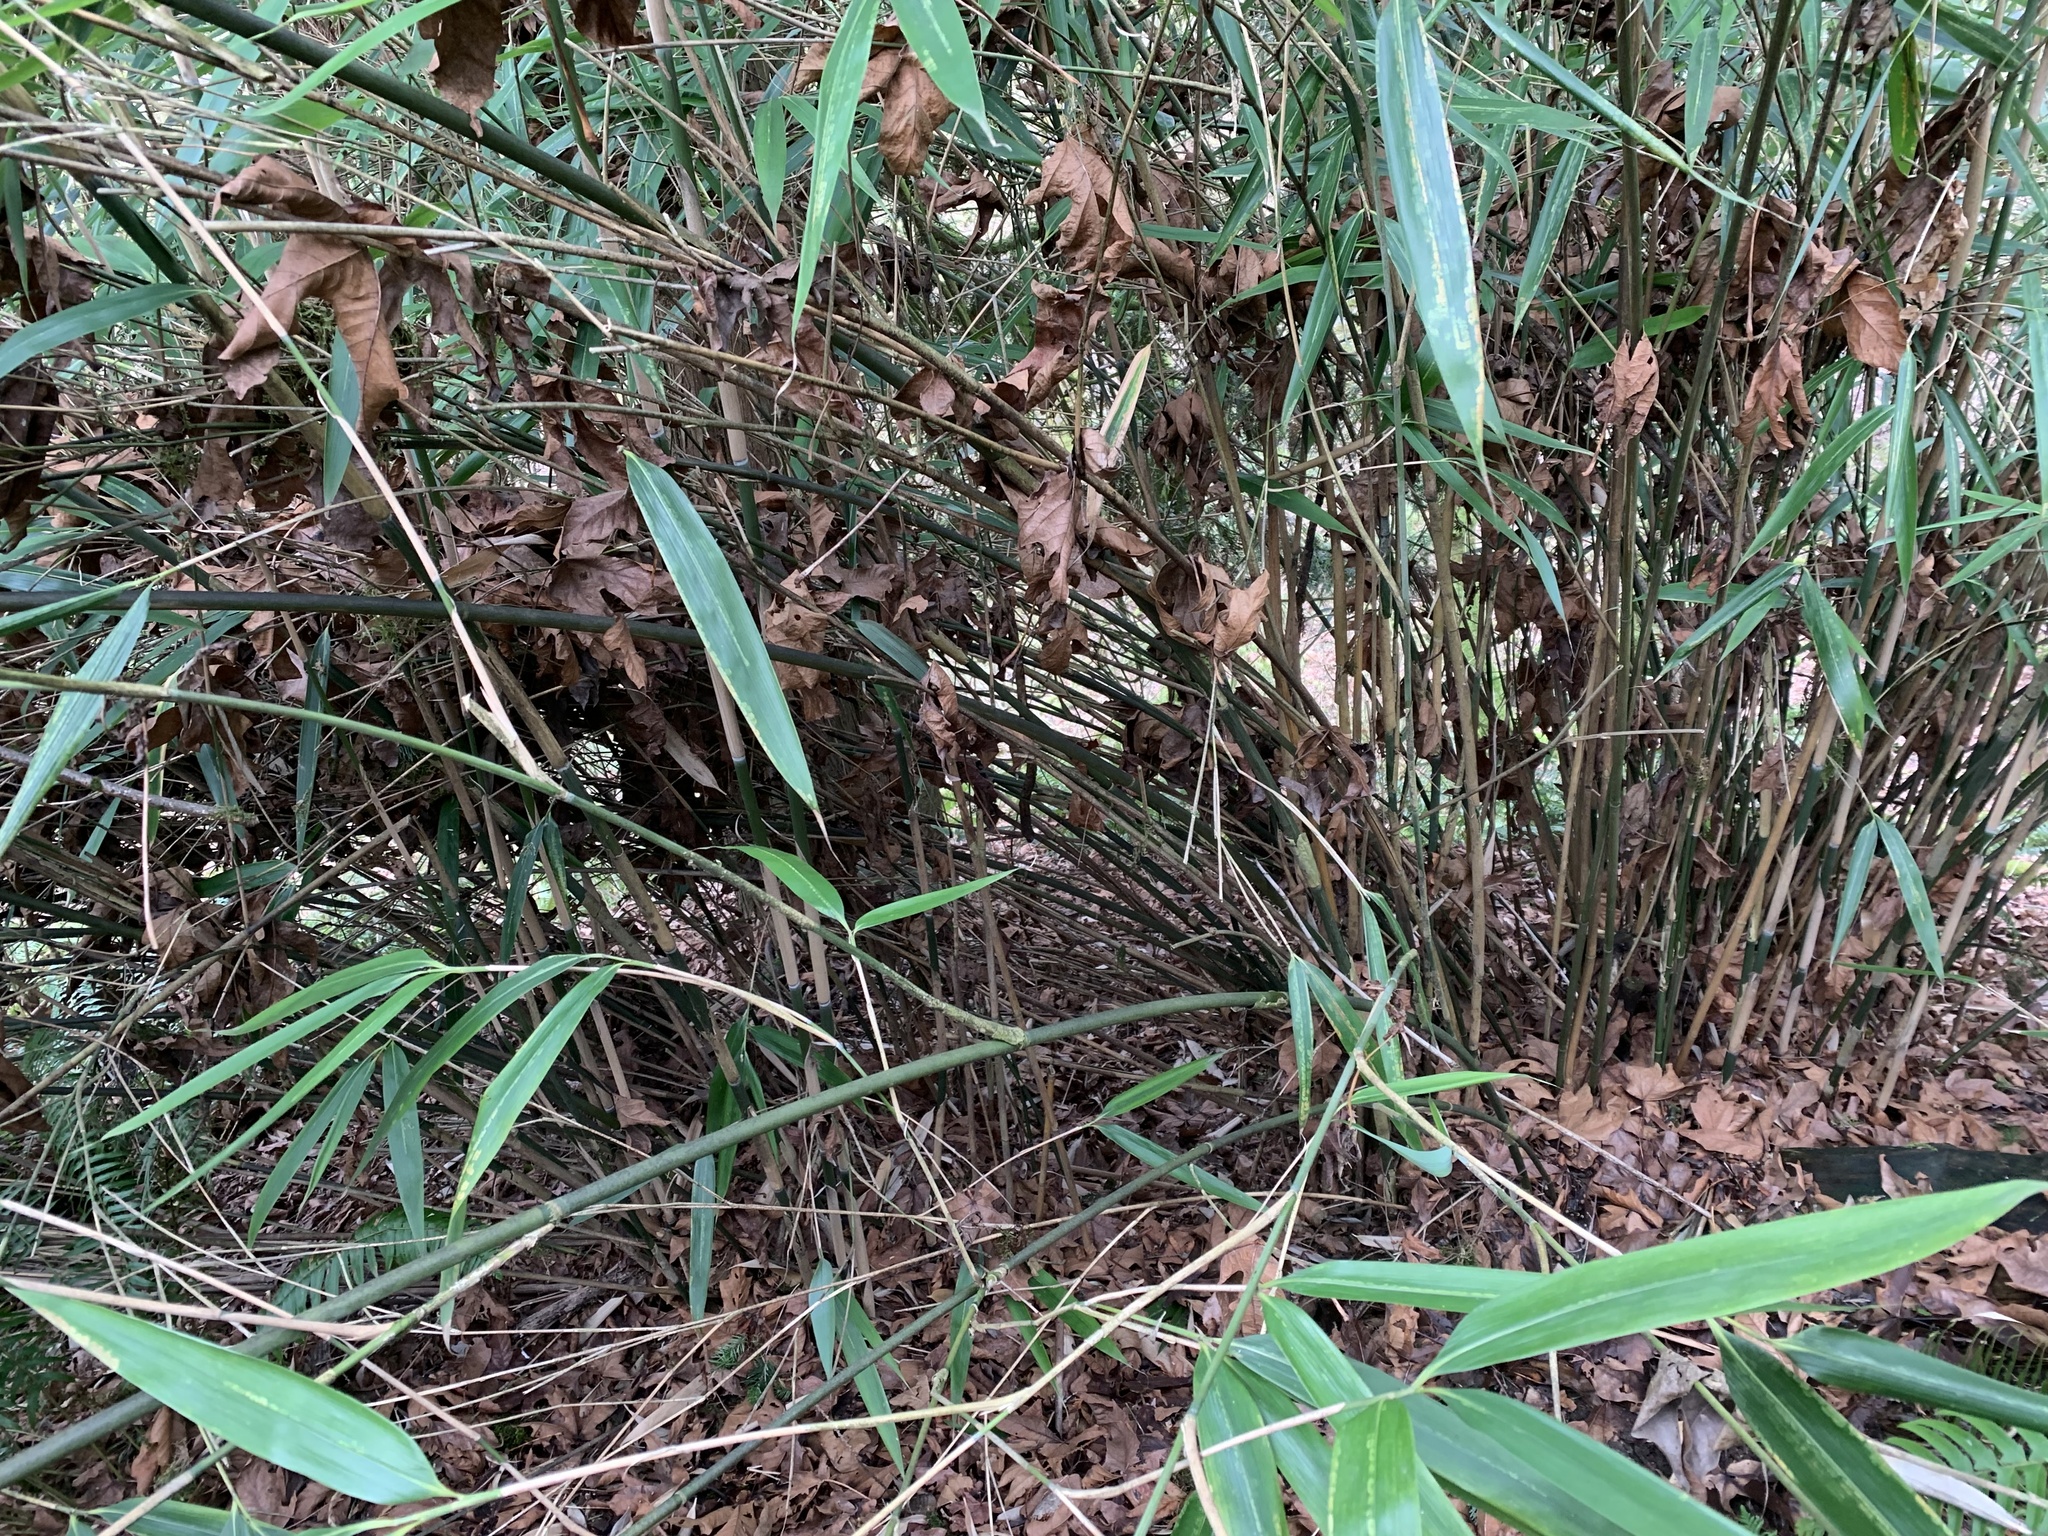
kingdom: Plantae
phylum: Tracheophyta
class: Liliopsida
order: Poales
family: Poaceae
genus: Pseudosasa
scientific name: Pseudosasa japonica
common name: Arrow bamboo
